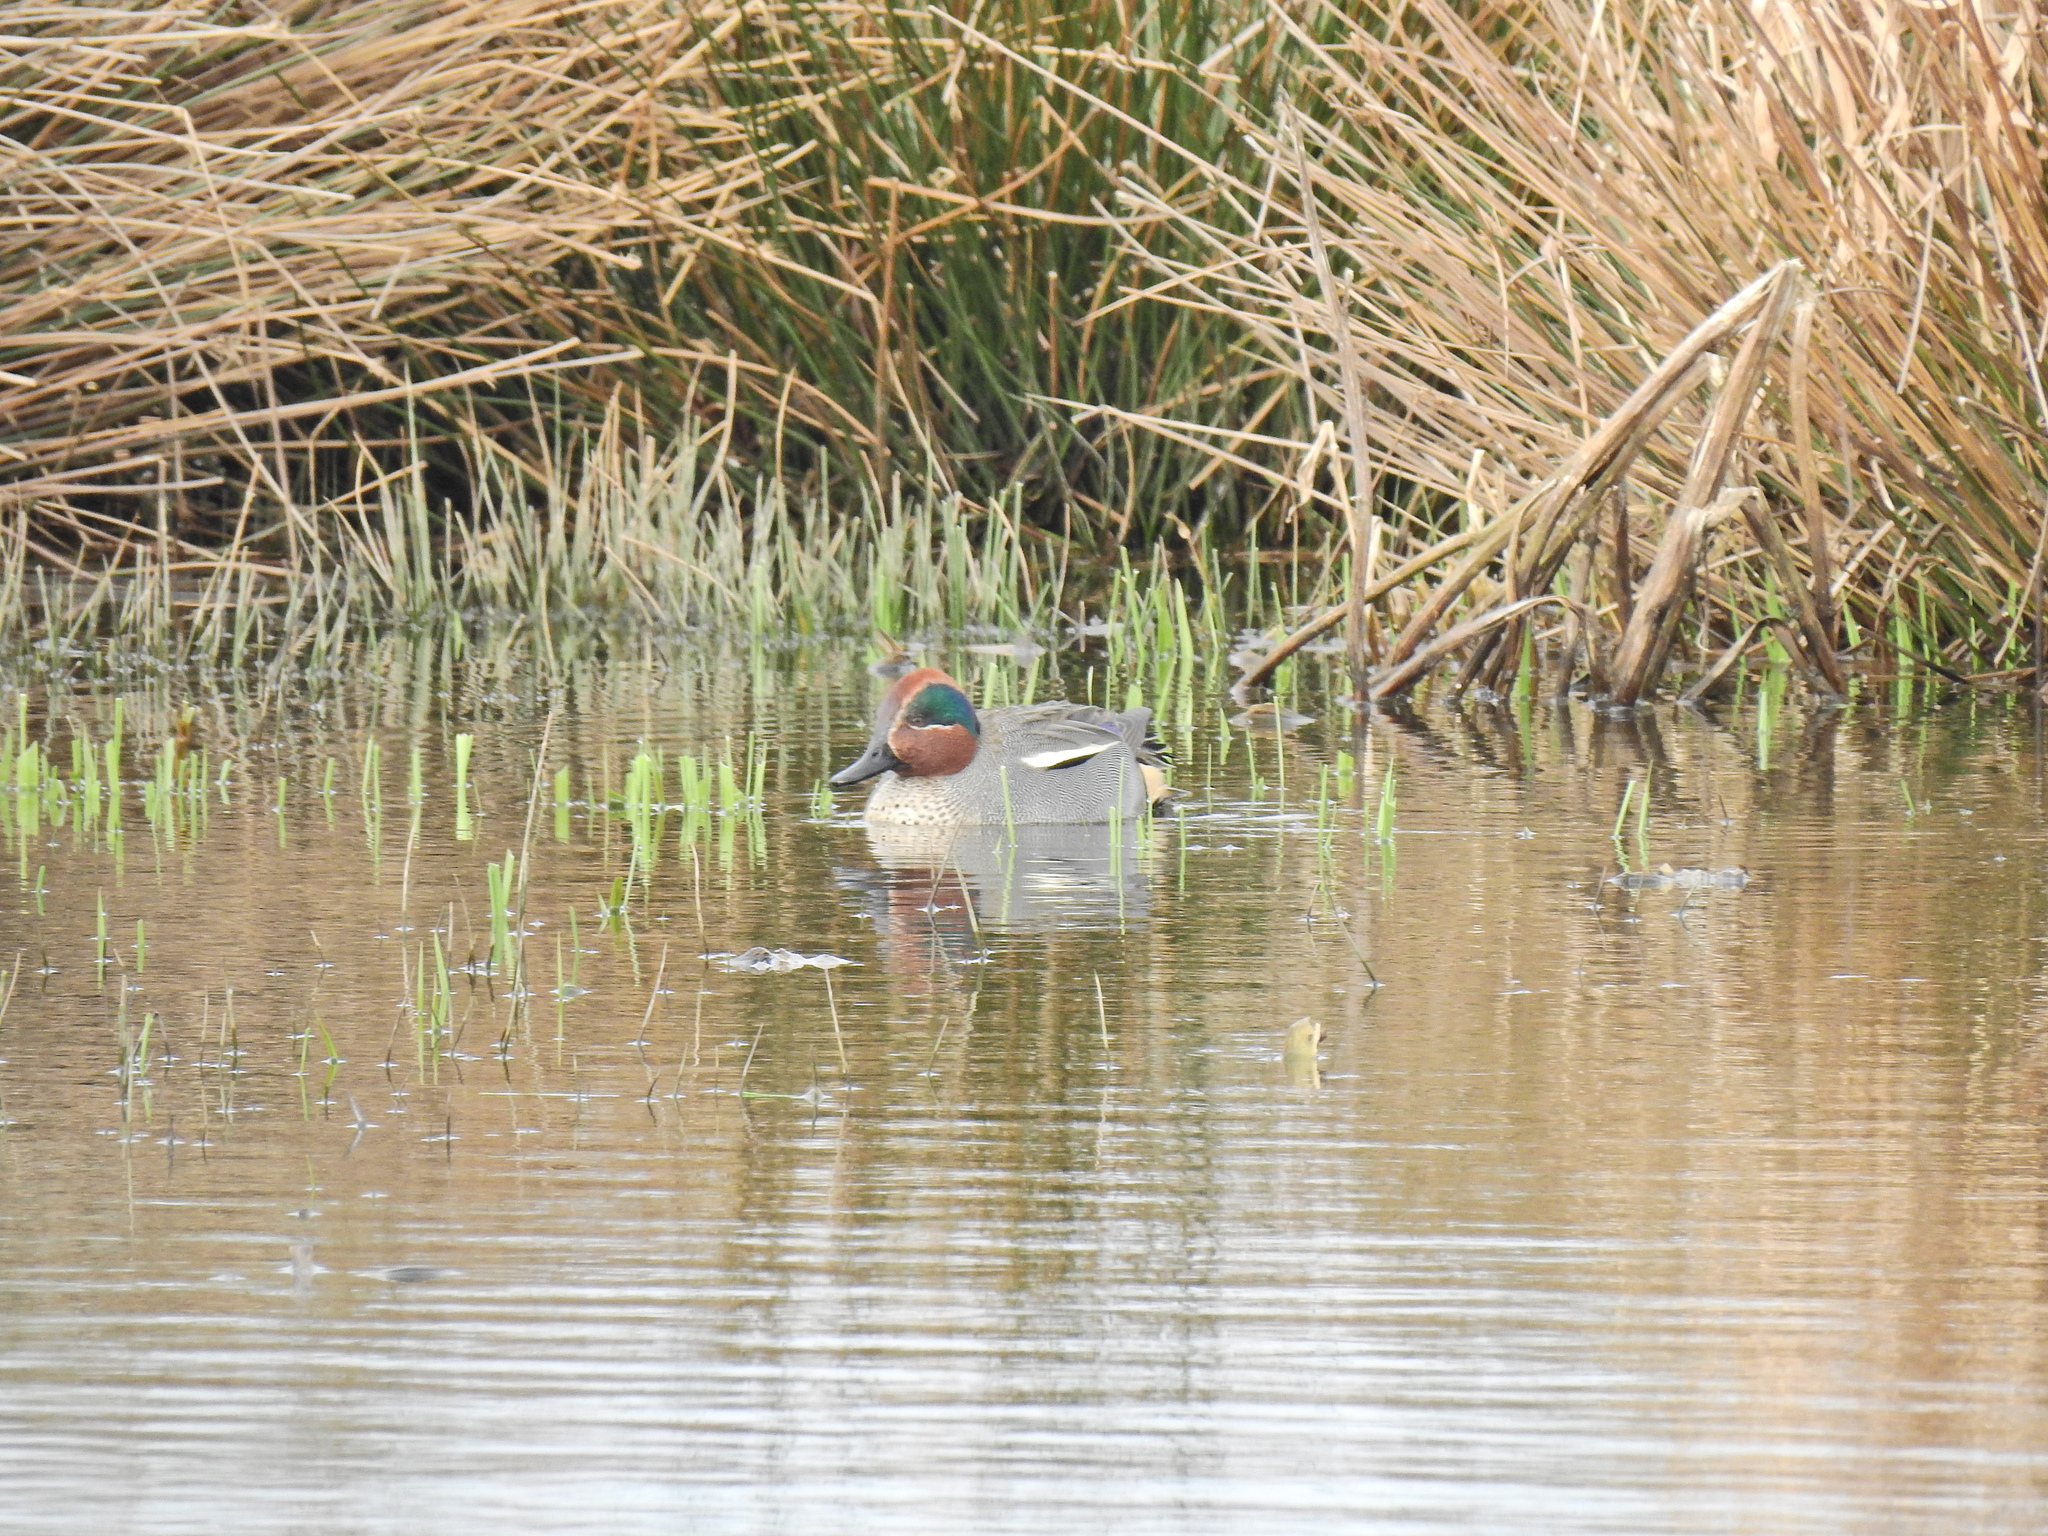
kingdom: Animalia
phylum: Chordata
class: Aves
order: Anseriformes
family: Anatidae
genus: Anas
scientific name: Anas crecca
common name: Eurasian teal
